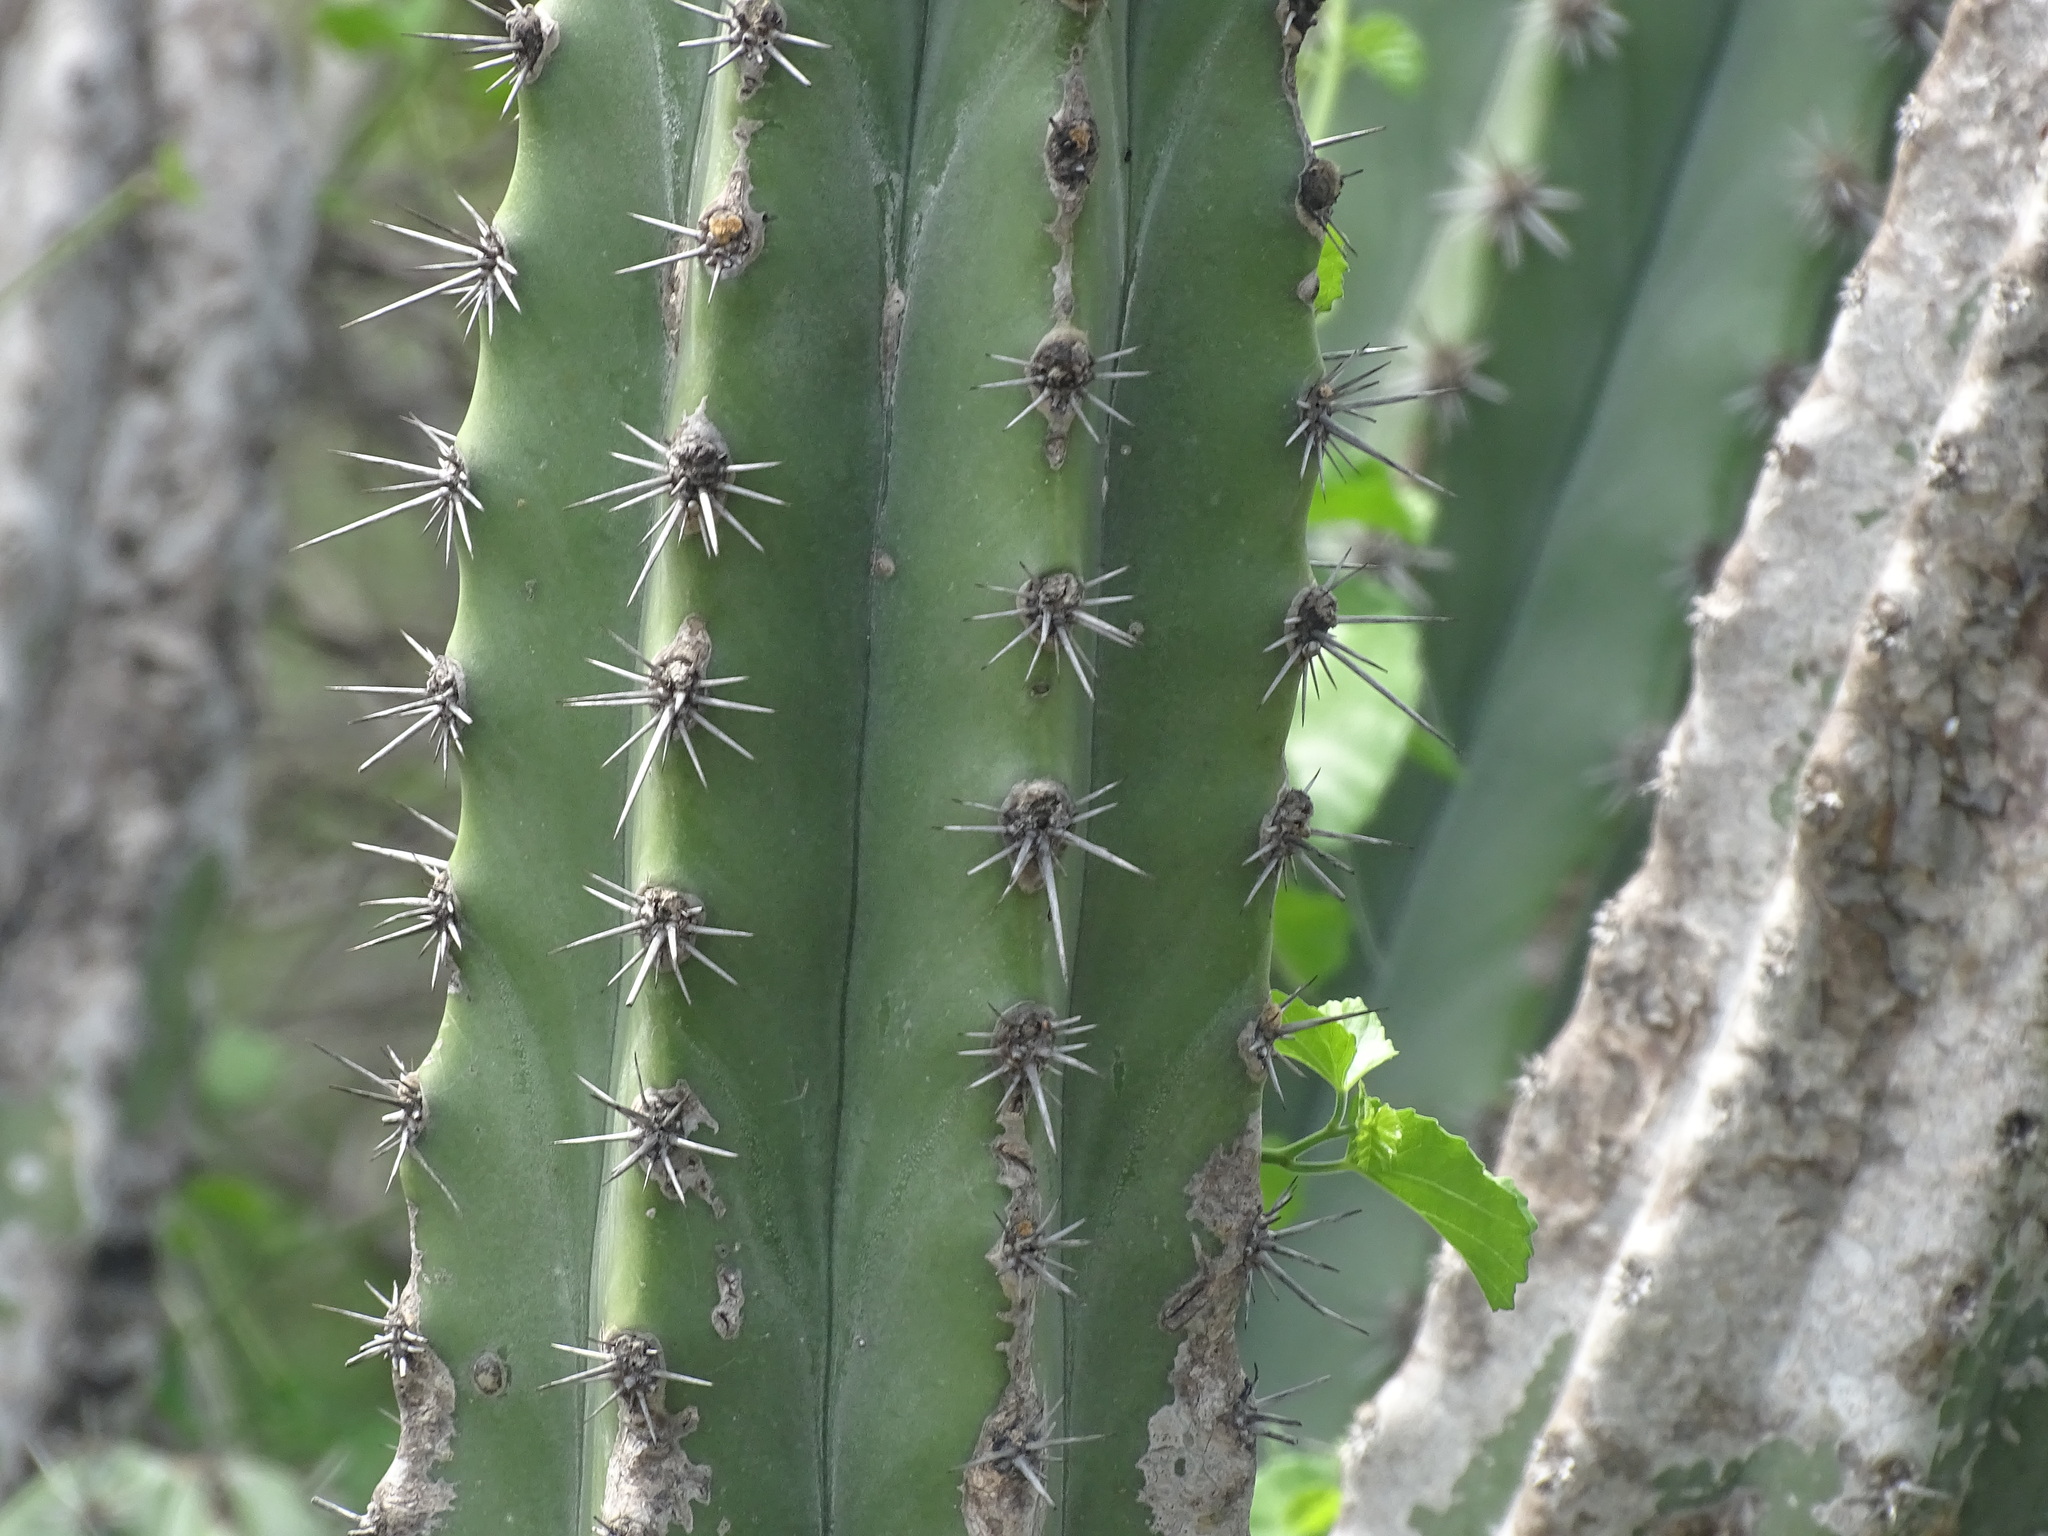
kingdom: Plantae
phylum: Tracheophyta
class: Magnoliopsida
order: Caryophyllales
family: Cactaceae
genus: Stenocereus
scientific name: Stenocereus pruinosus
